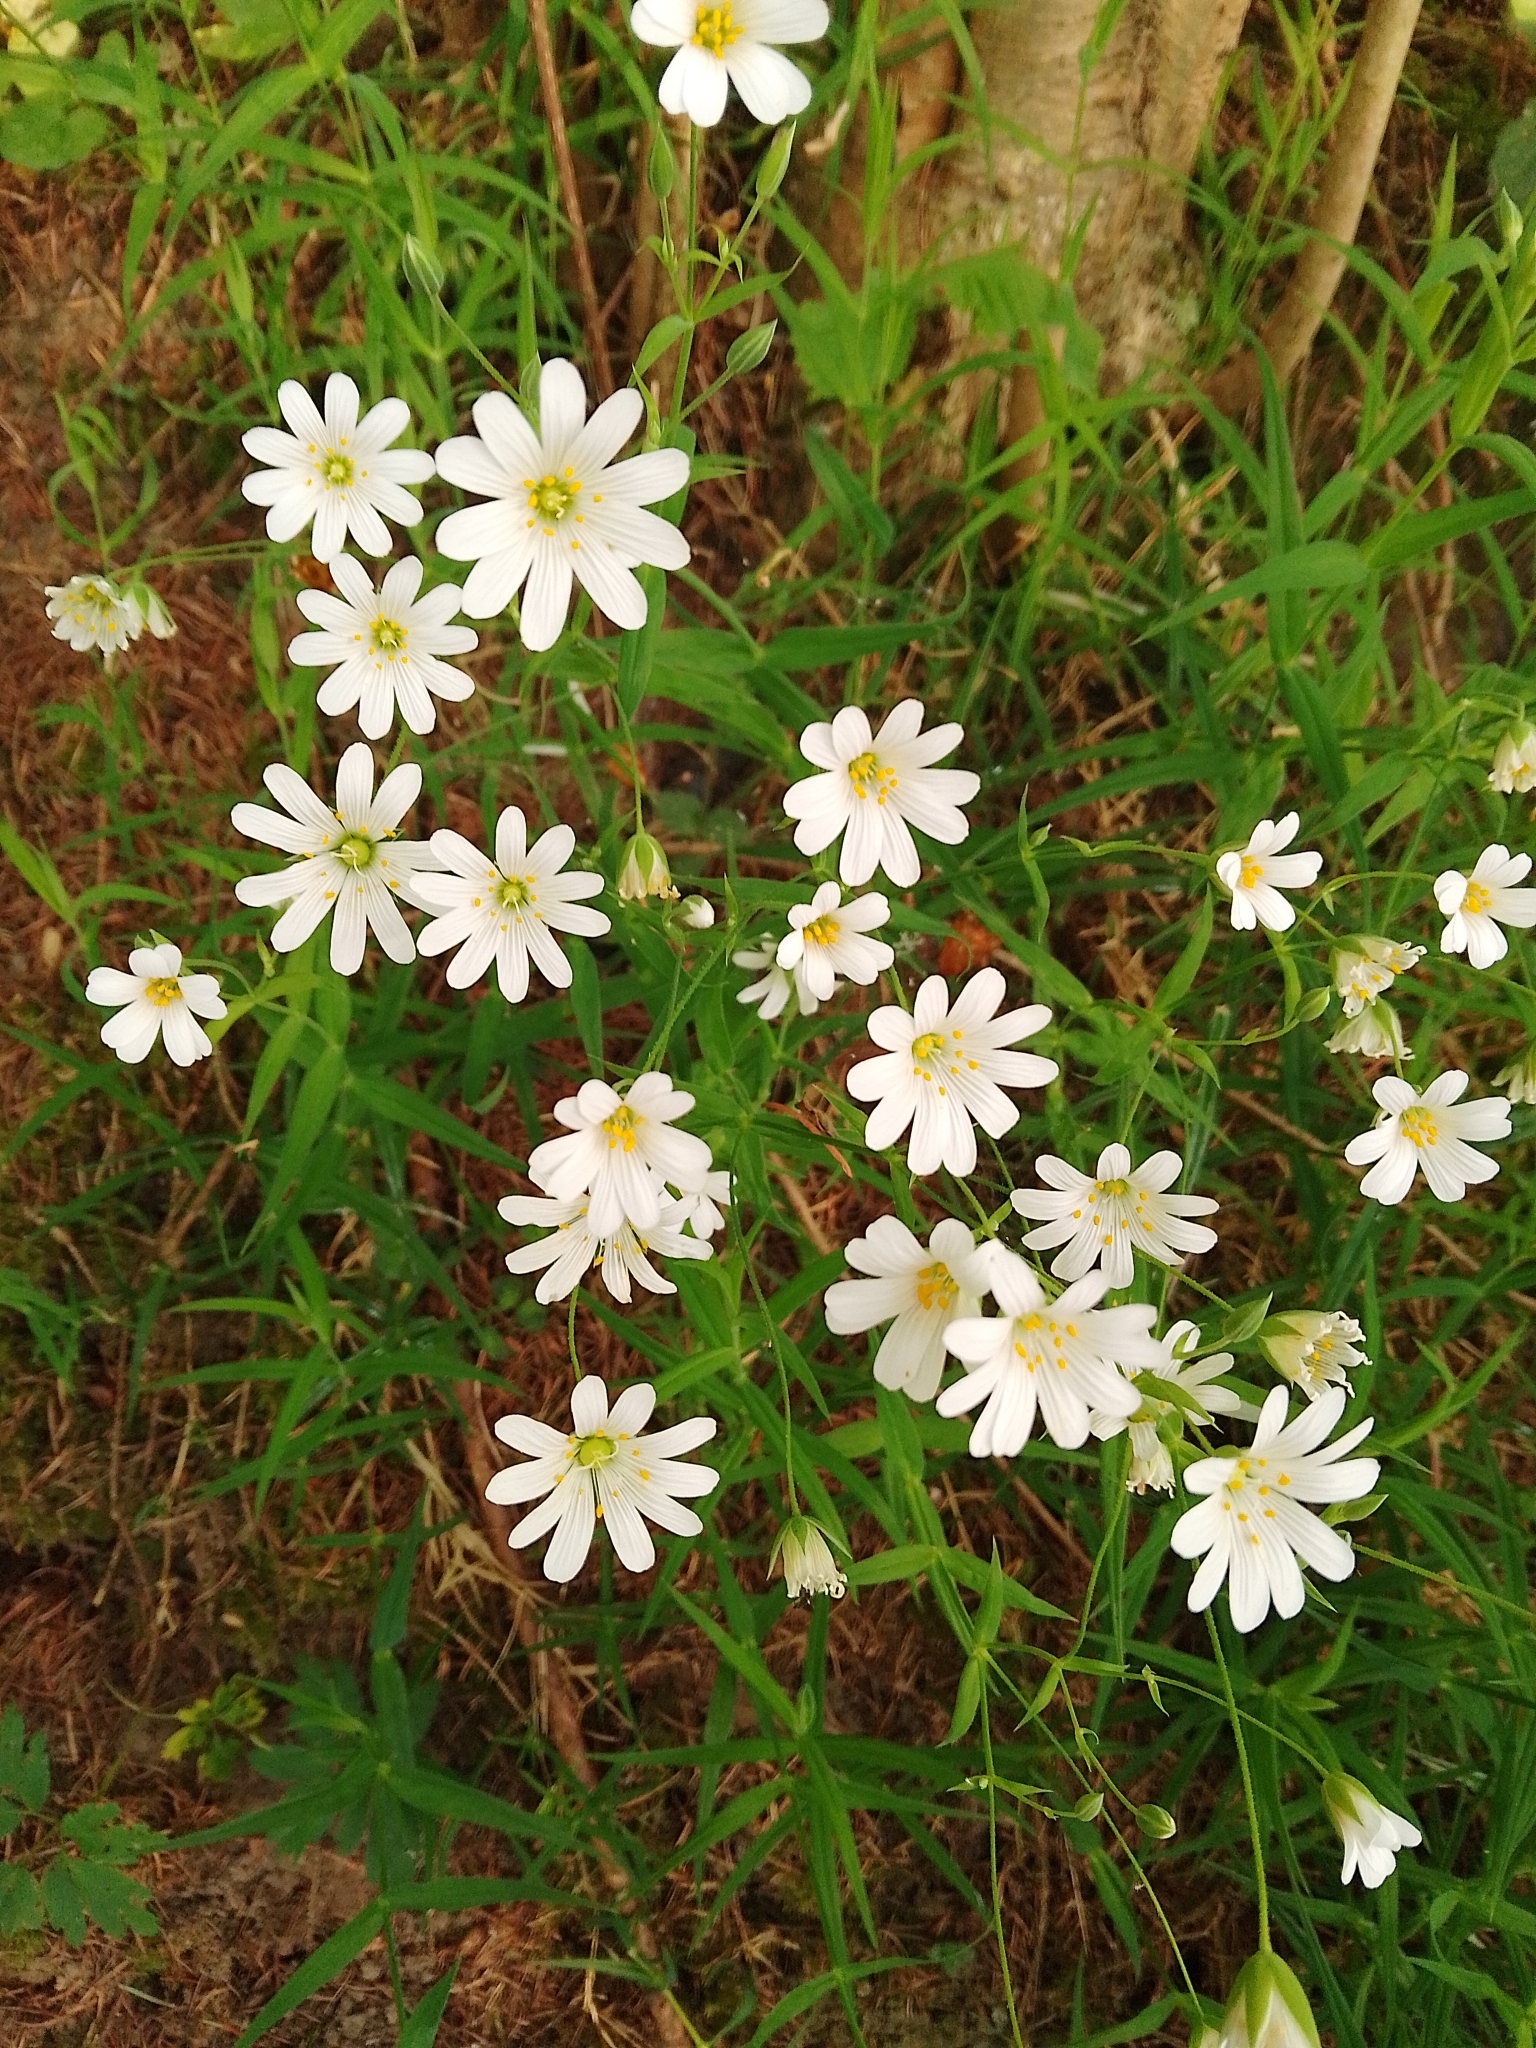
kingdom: Plantae
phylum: Tracheophyta
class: Magnoliopsida
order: Caryophyllales
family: Caryophyllaceae
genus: Rabelera
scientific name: Rabelera holostea
